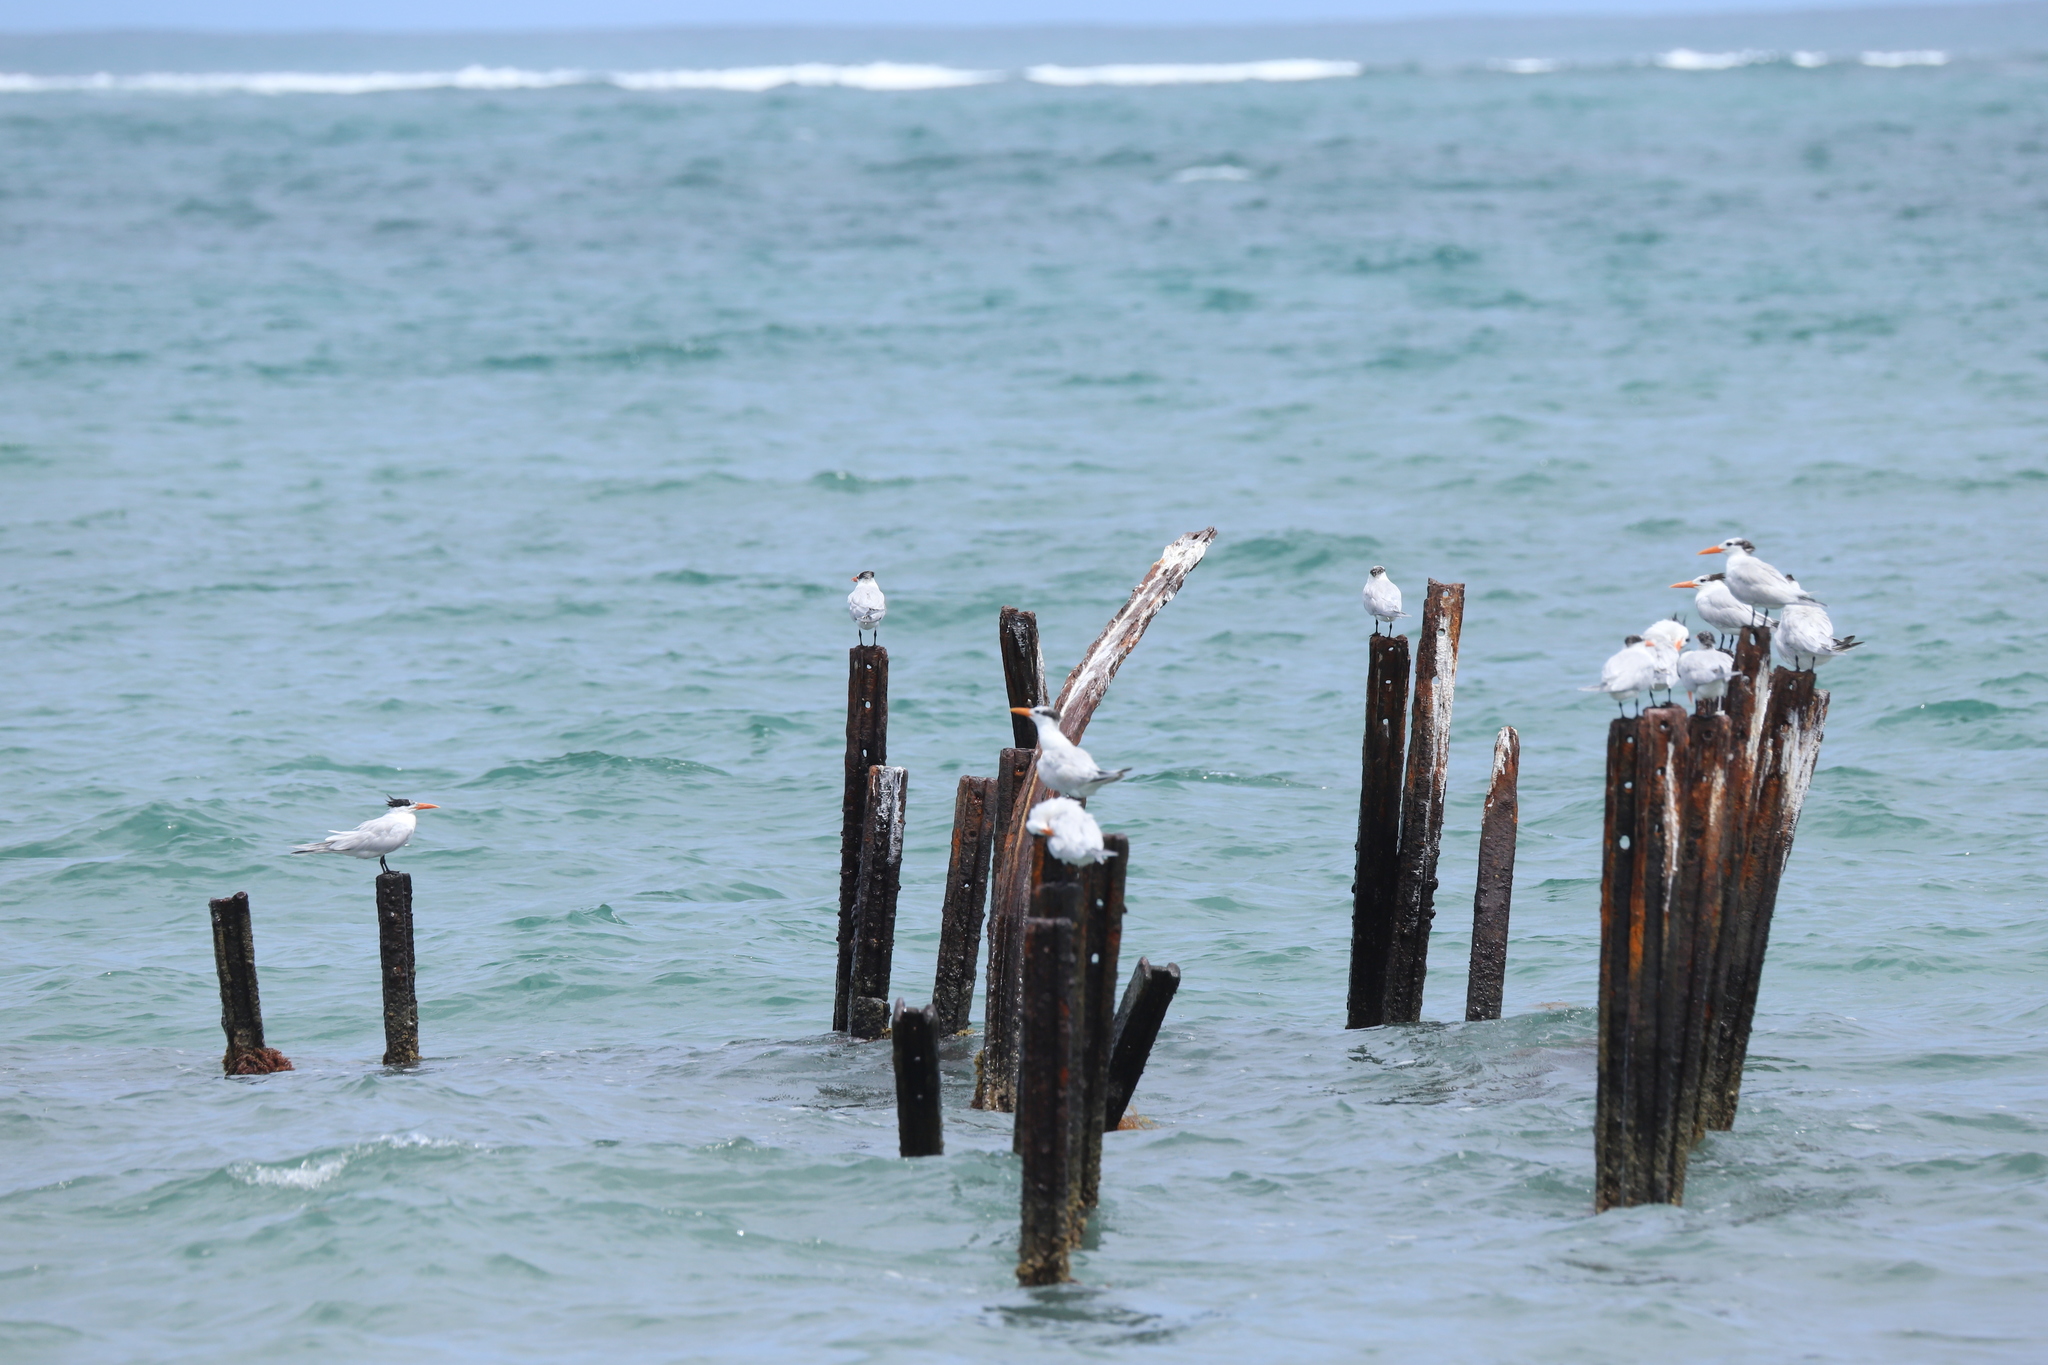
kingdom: Animalia
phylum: Chordata
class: Aves
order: Charadriiformes
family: Laridae
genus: Thalasseus
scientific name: Thalasseus maximus
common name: Royal tern
